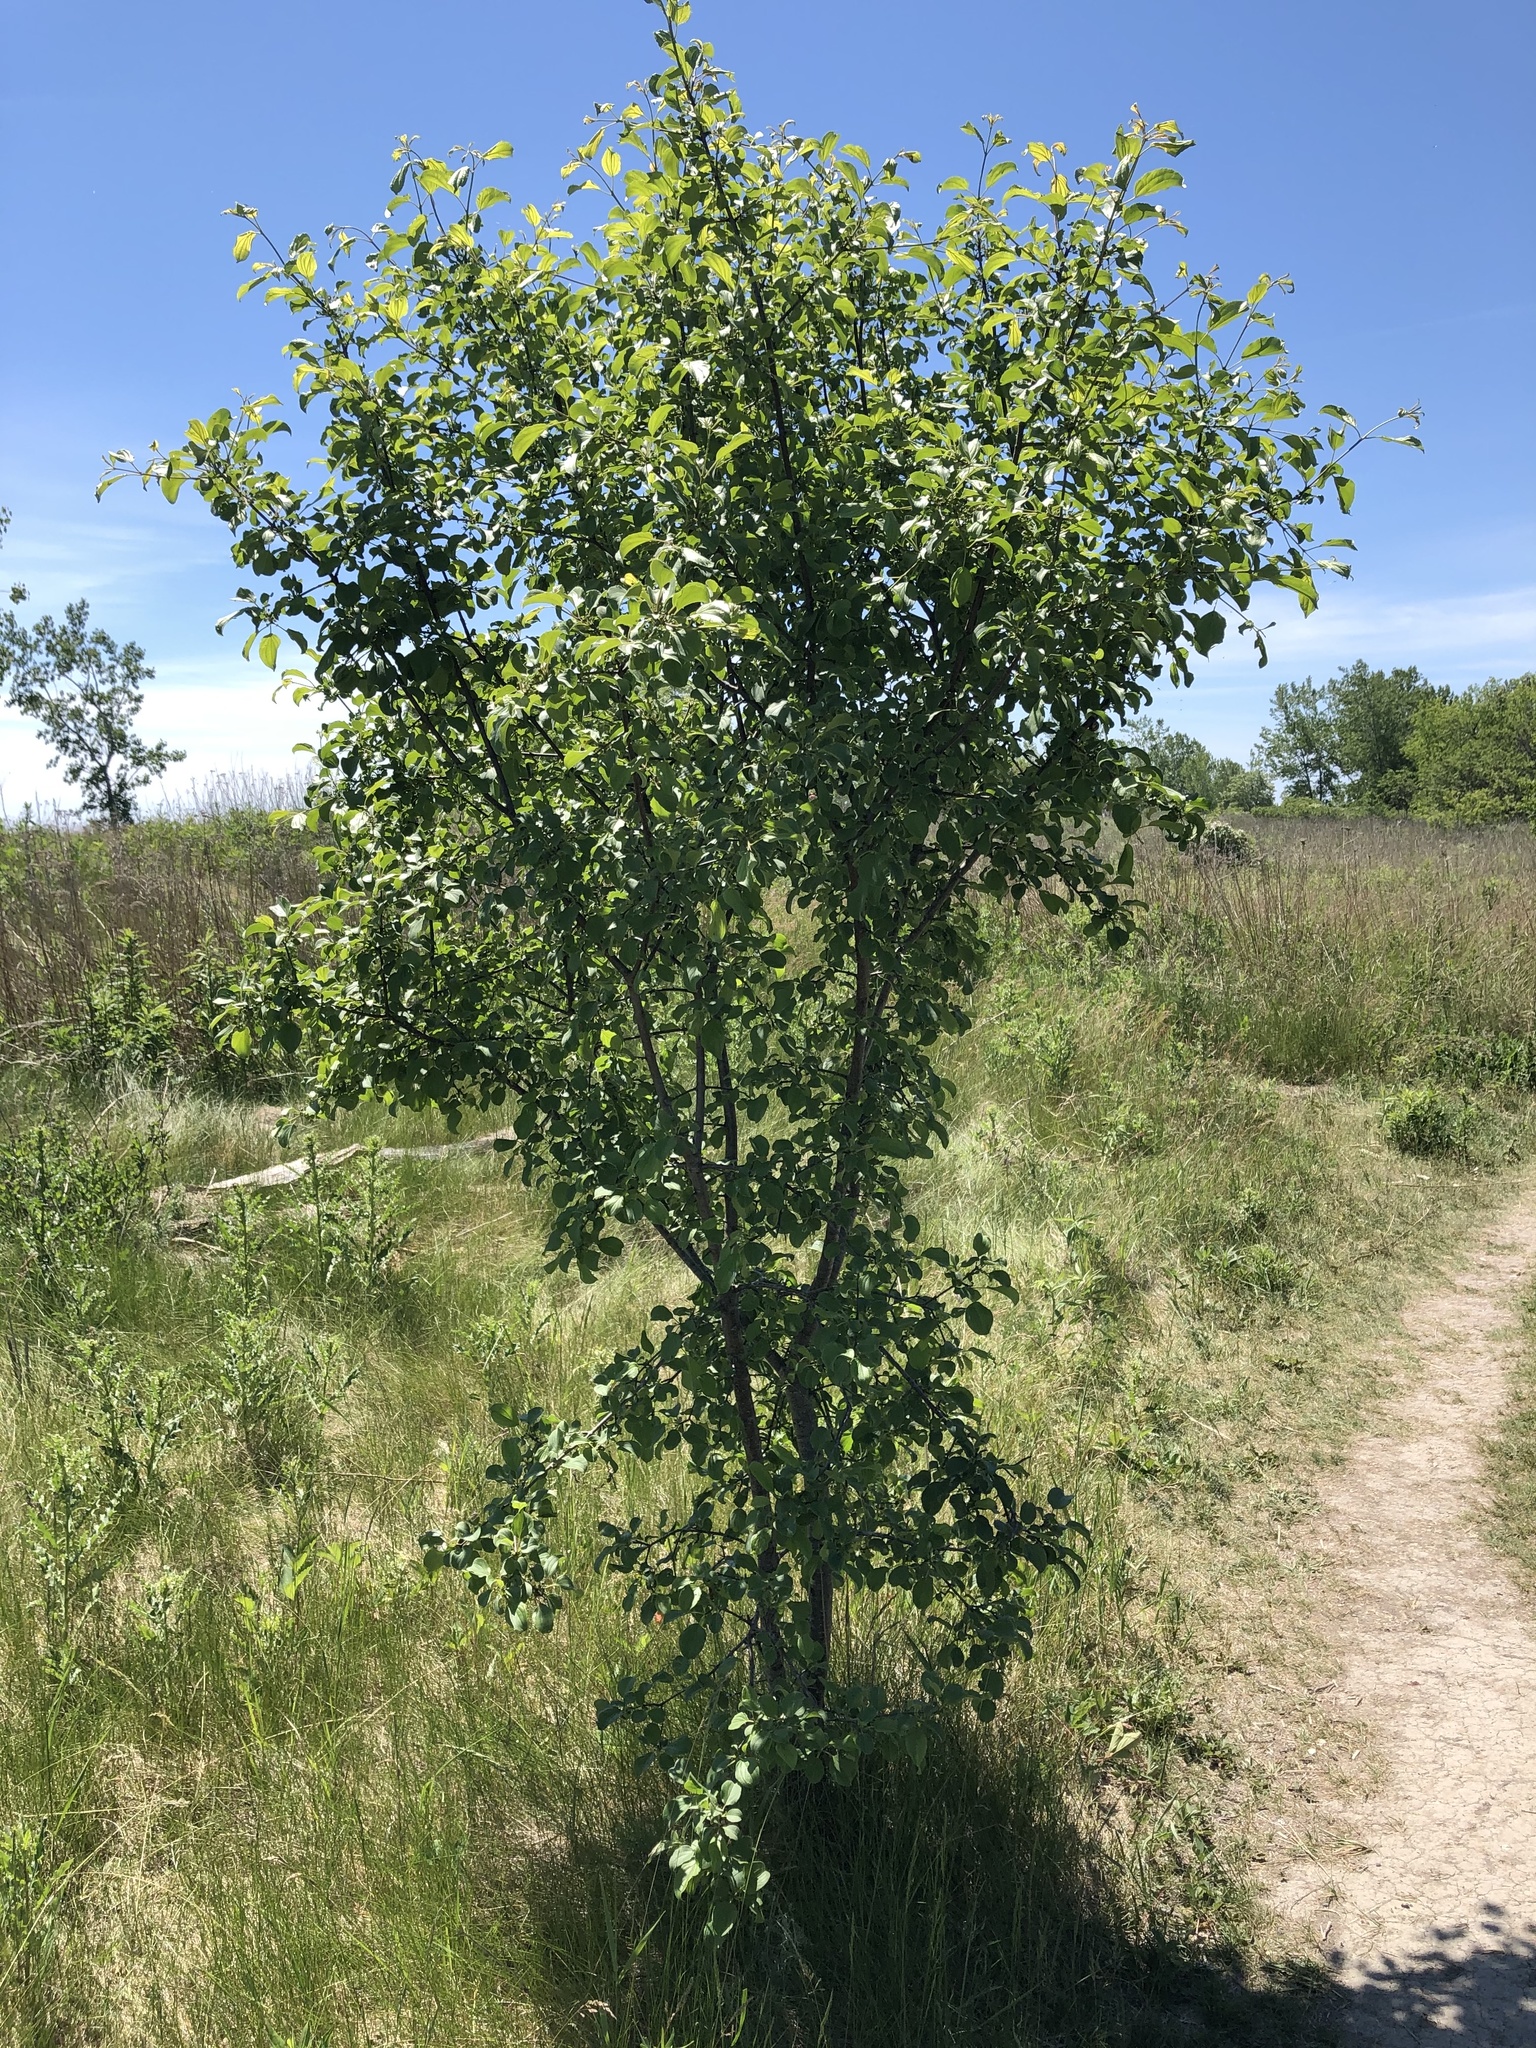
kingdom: Plantae
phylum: Tracheophyta
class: Magnoliopsida
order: Rosales
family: Rhamnaceae
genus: Rhamnus
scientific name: Rhamnus cathartica
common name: Common buckthorn
